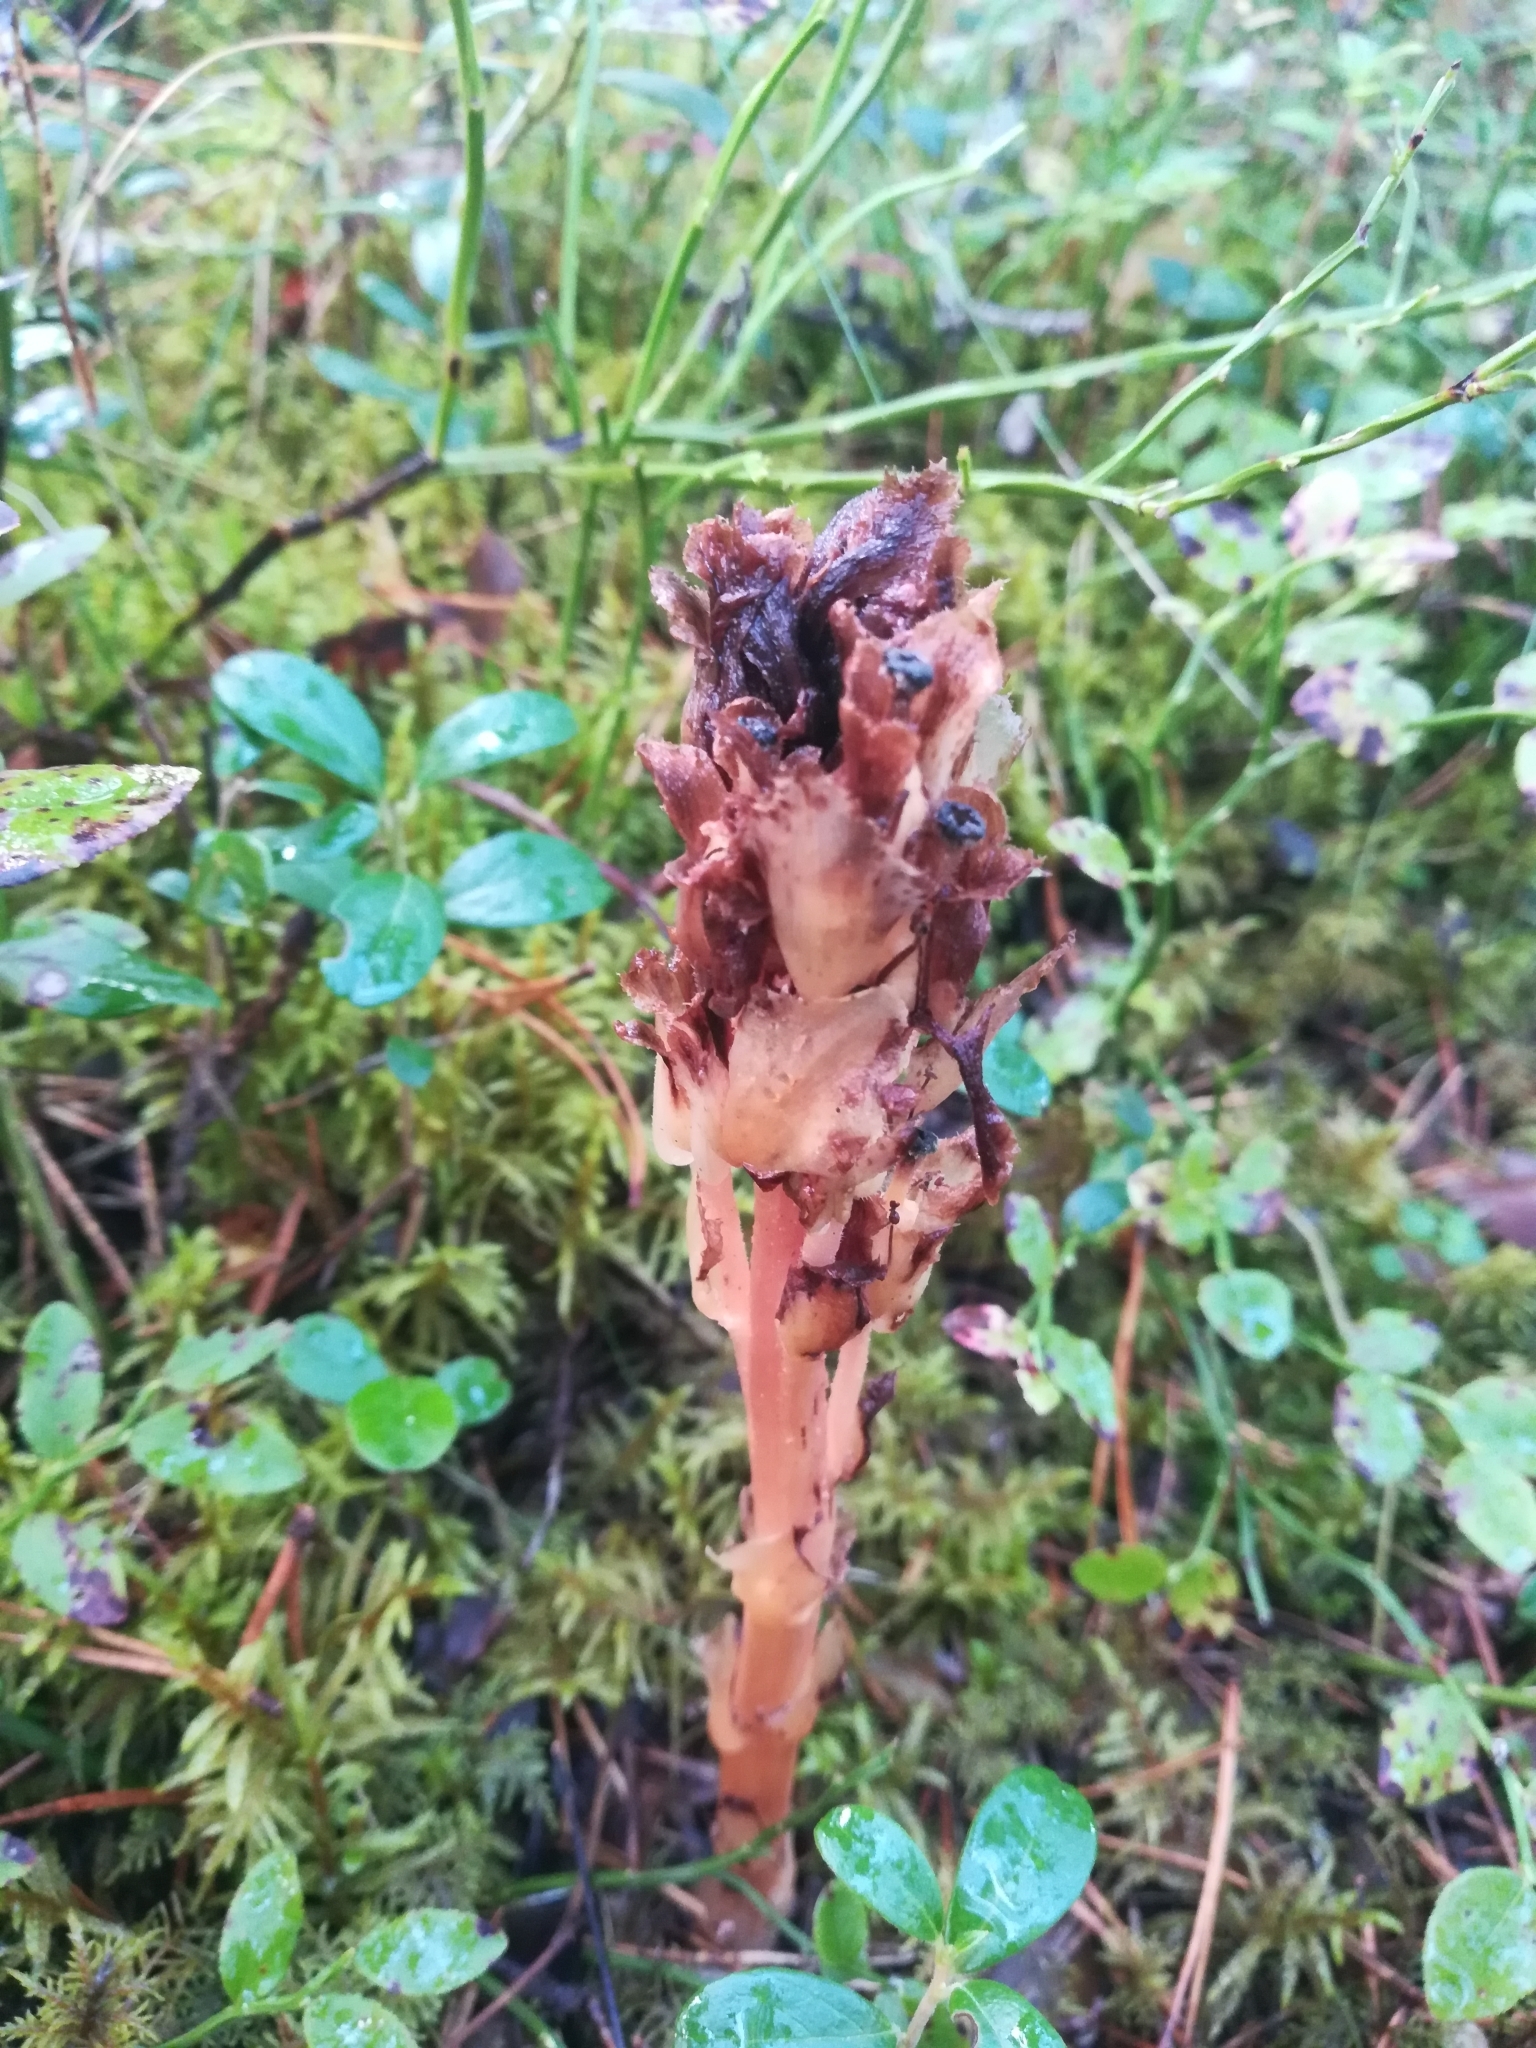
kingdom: Plantae
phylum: Tracheophyta
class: Magnoliopsida
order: Ericales
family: Ericaceae
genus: Hypopitys
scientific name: Hypopitys monotropa
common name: Yellow bird's-nest
